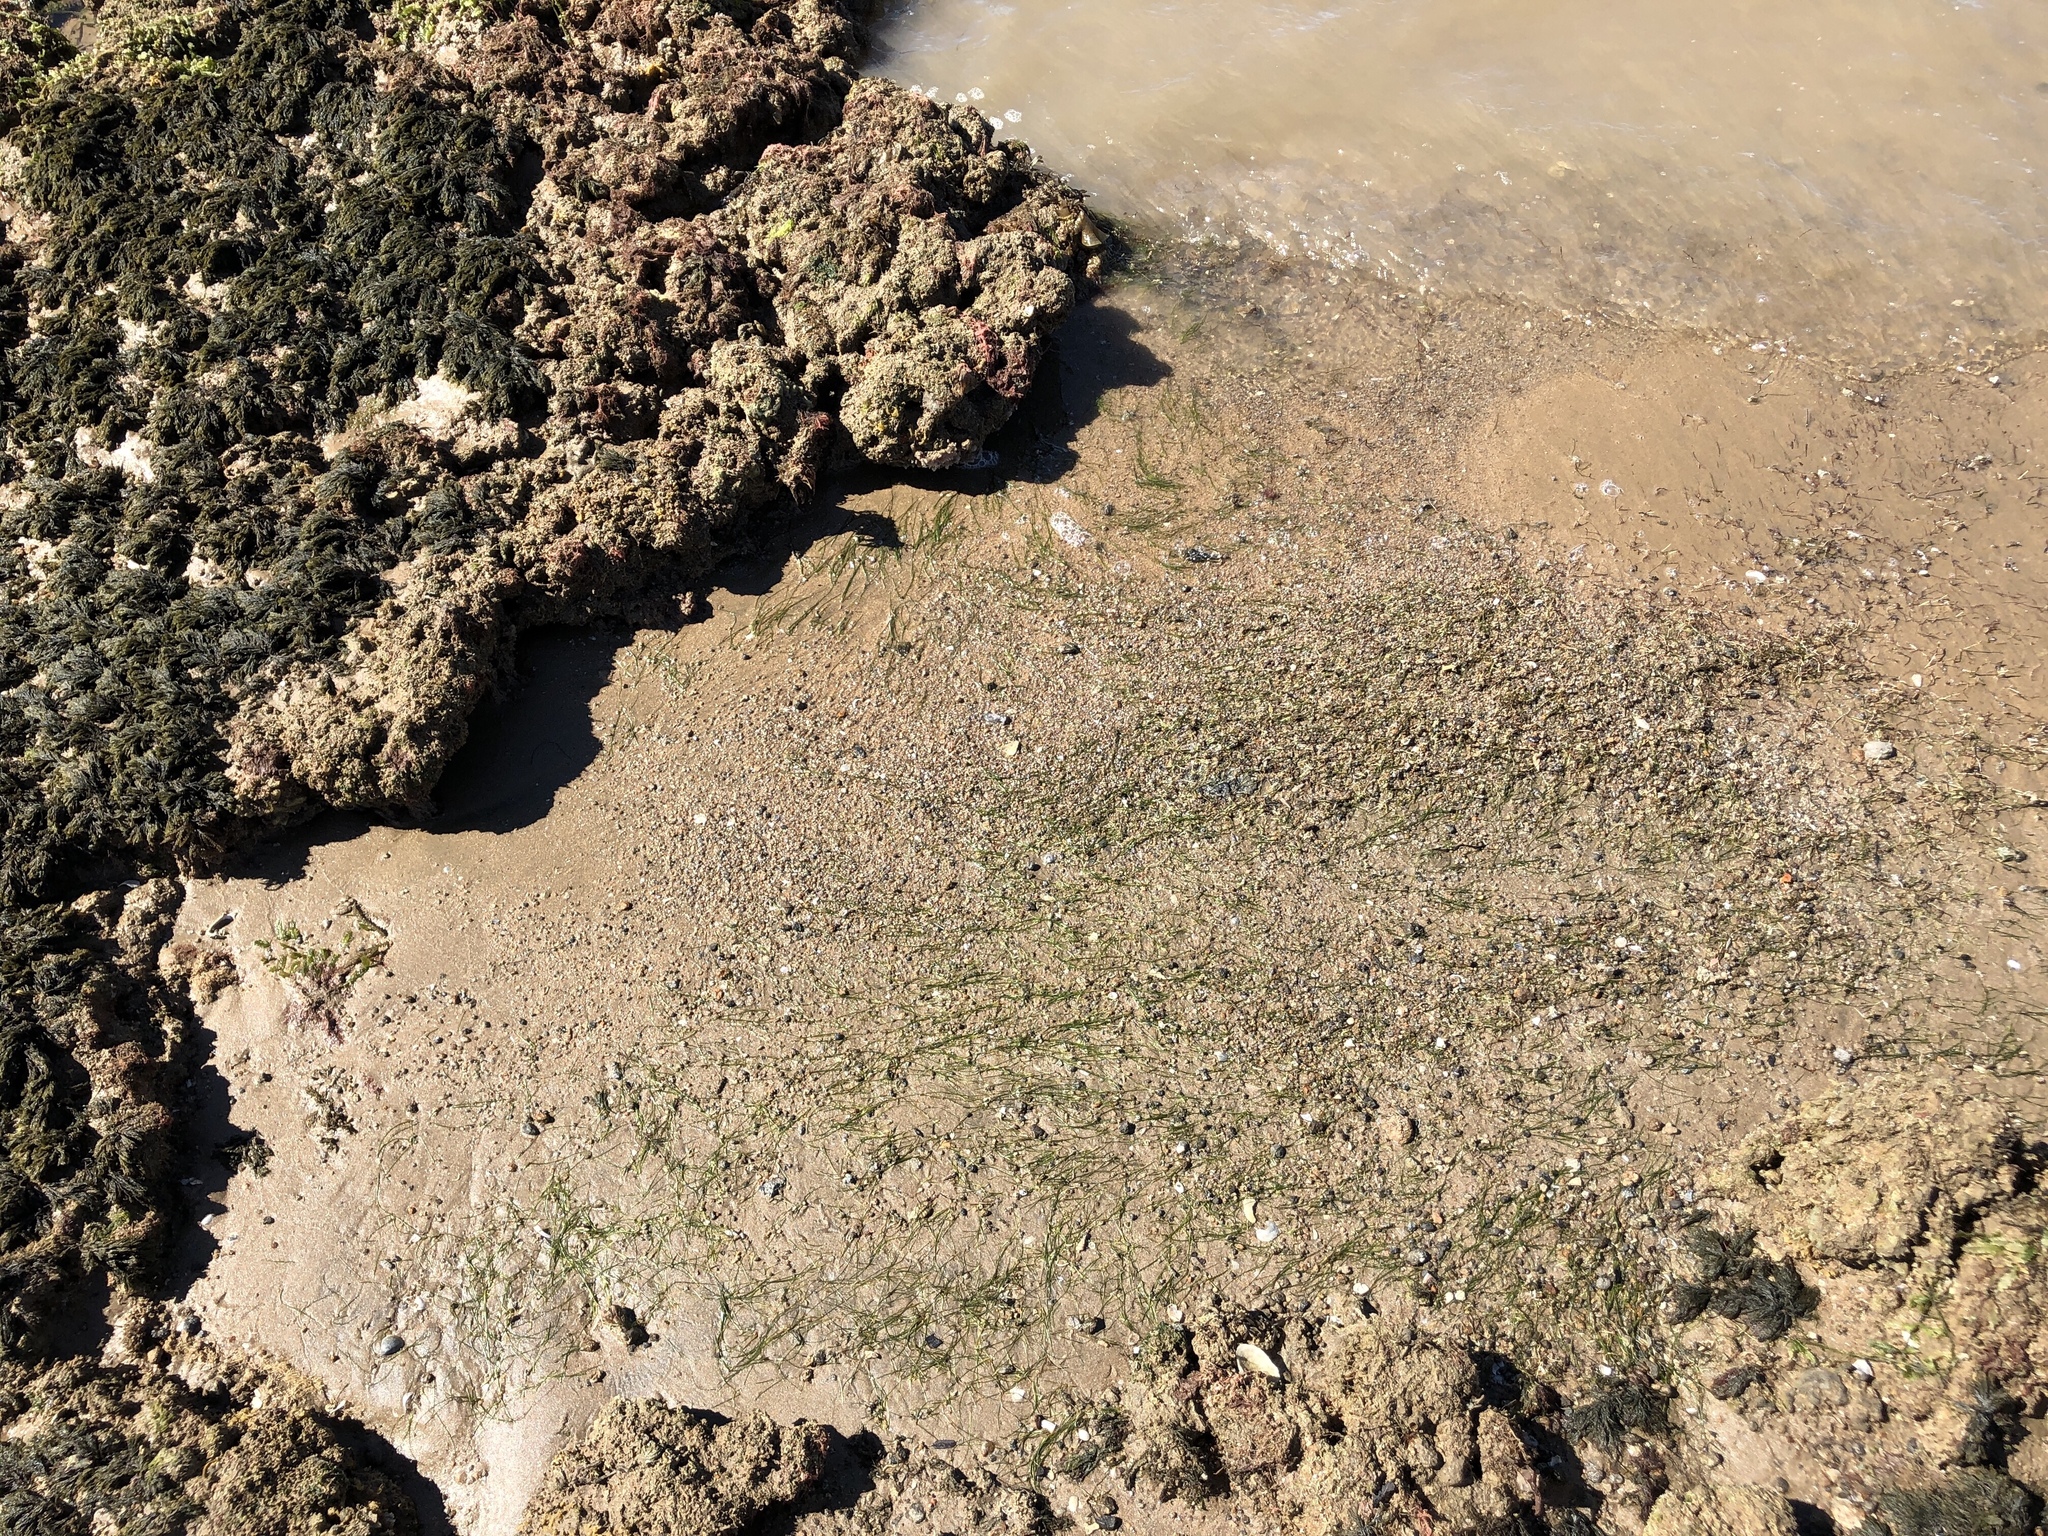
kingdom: Plantae
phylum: Tracheophyta
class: Liliopsida
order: Alismatales
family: Cymodoceaceae
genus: Halodule
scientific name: Halodule pinifolia
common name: Species code: hp
